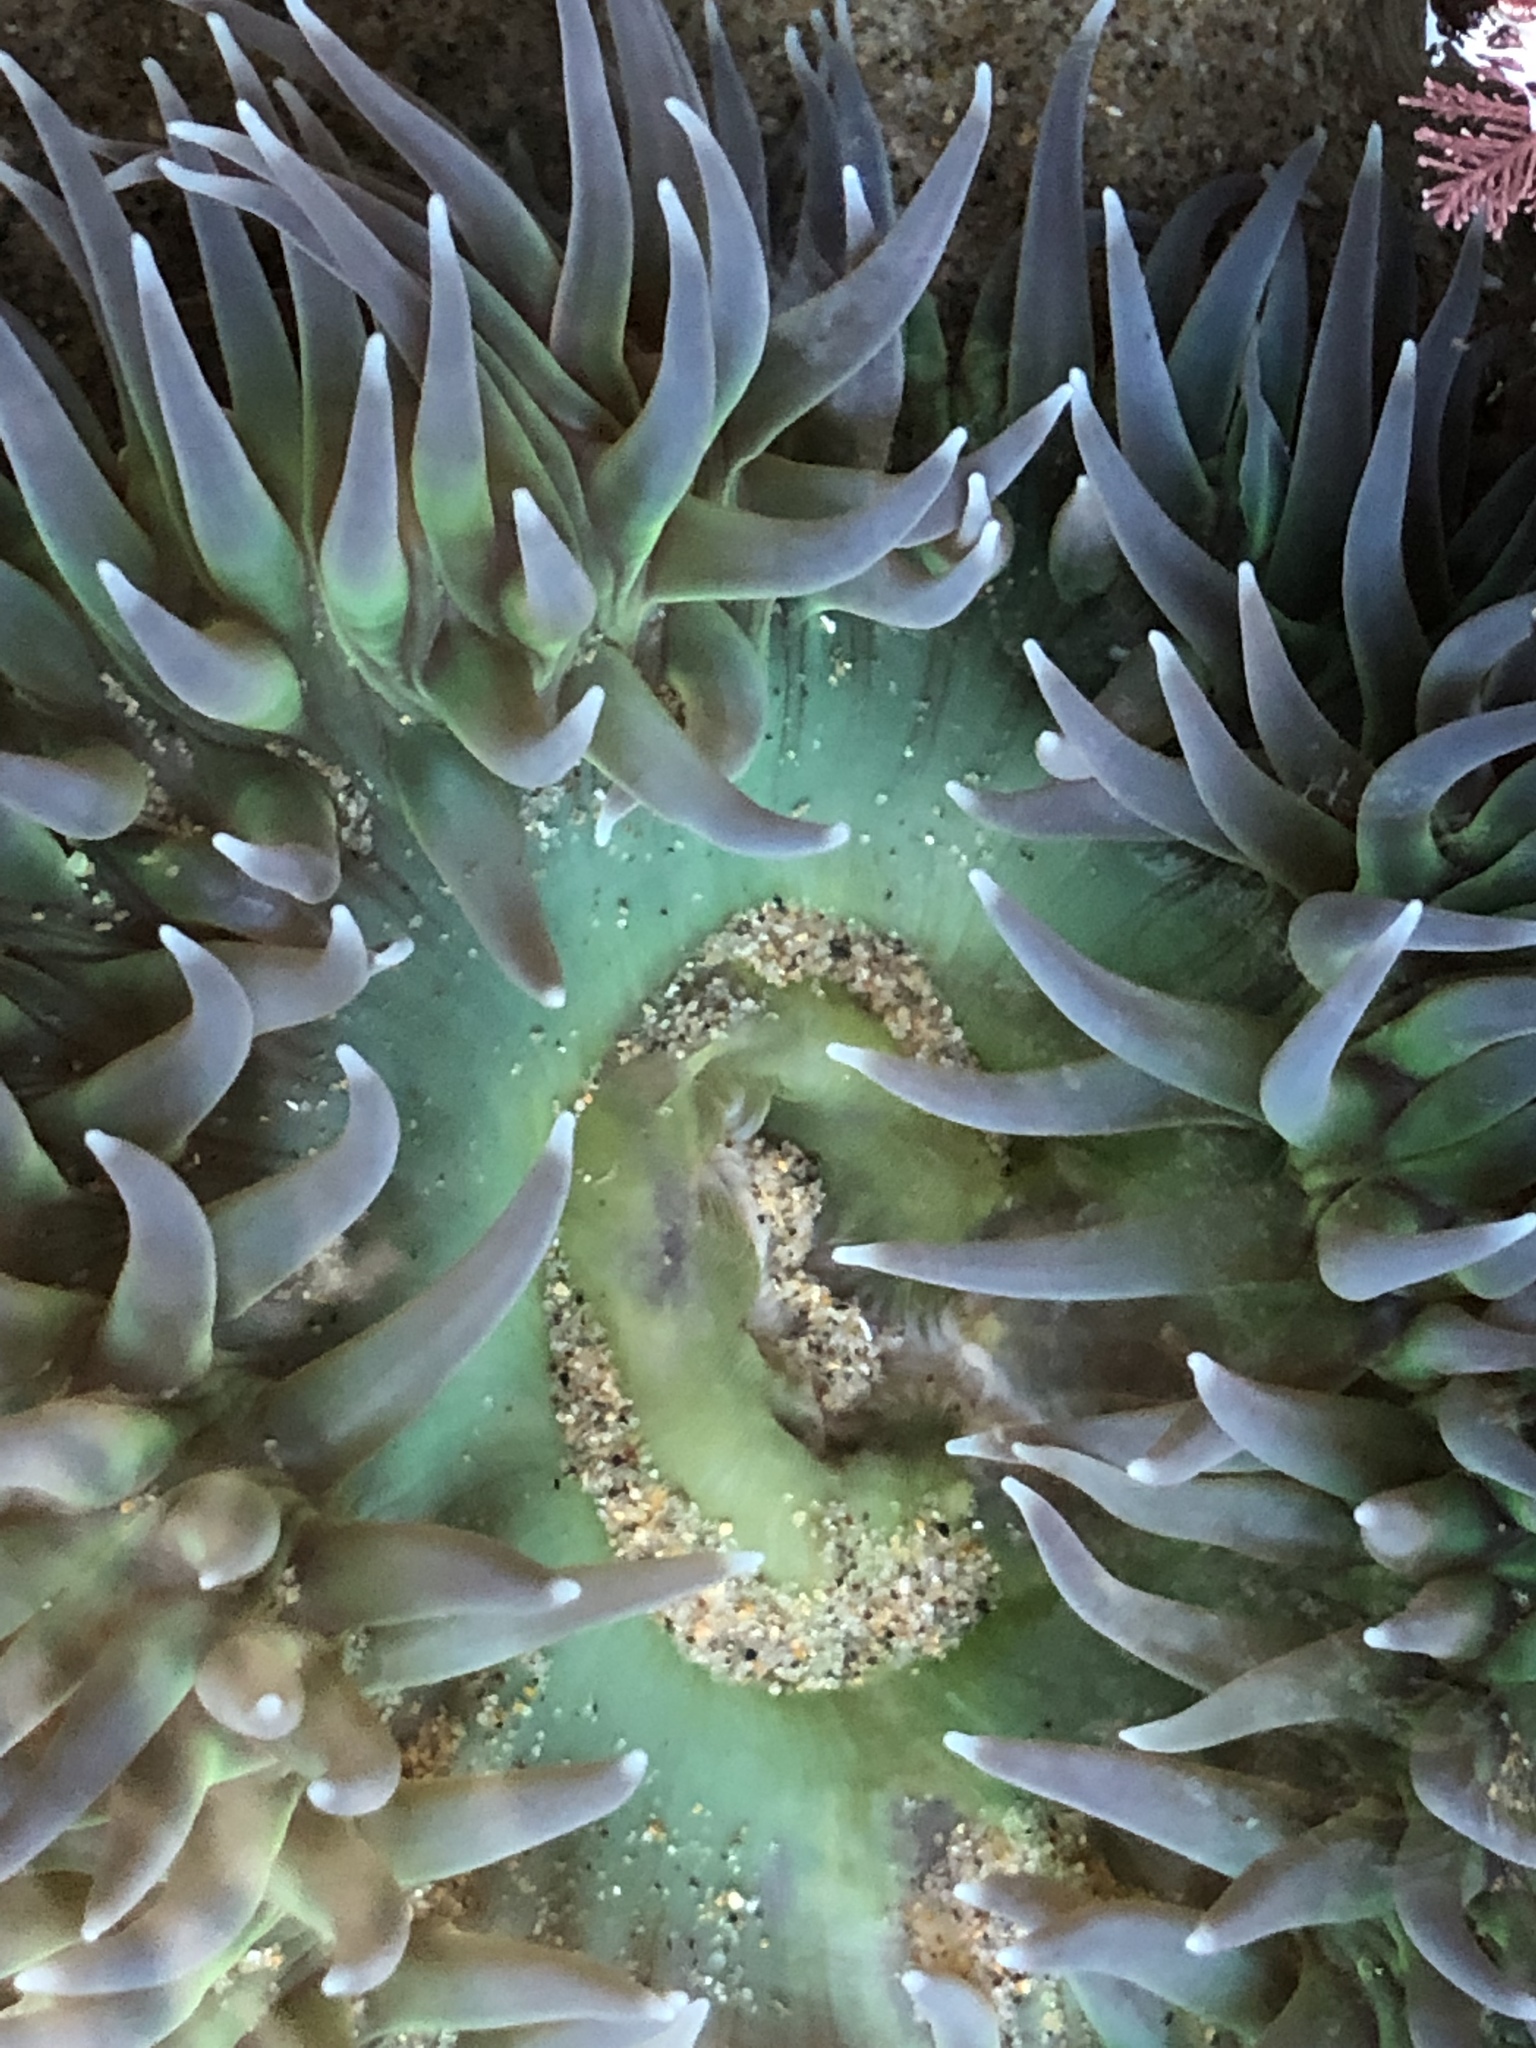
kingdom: Animalia
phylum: Cnidaria
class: Anthozoa
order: Actiniaria
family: Actiniidae
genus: Anthopleura
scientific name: Anthopleura xanthogrammica
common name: Giant green anemone
